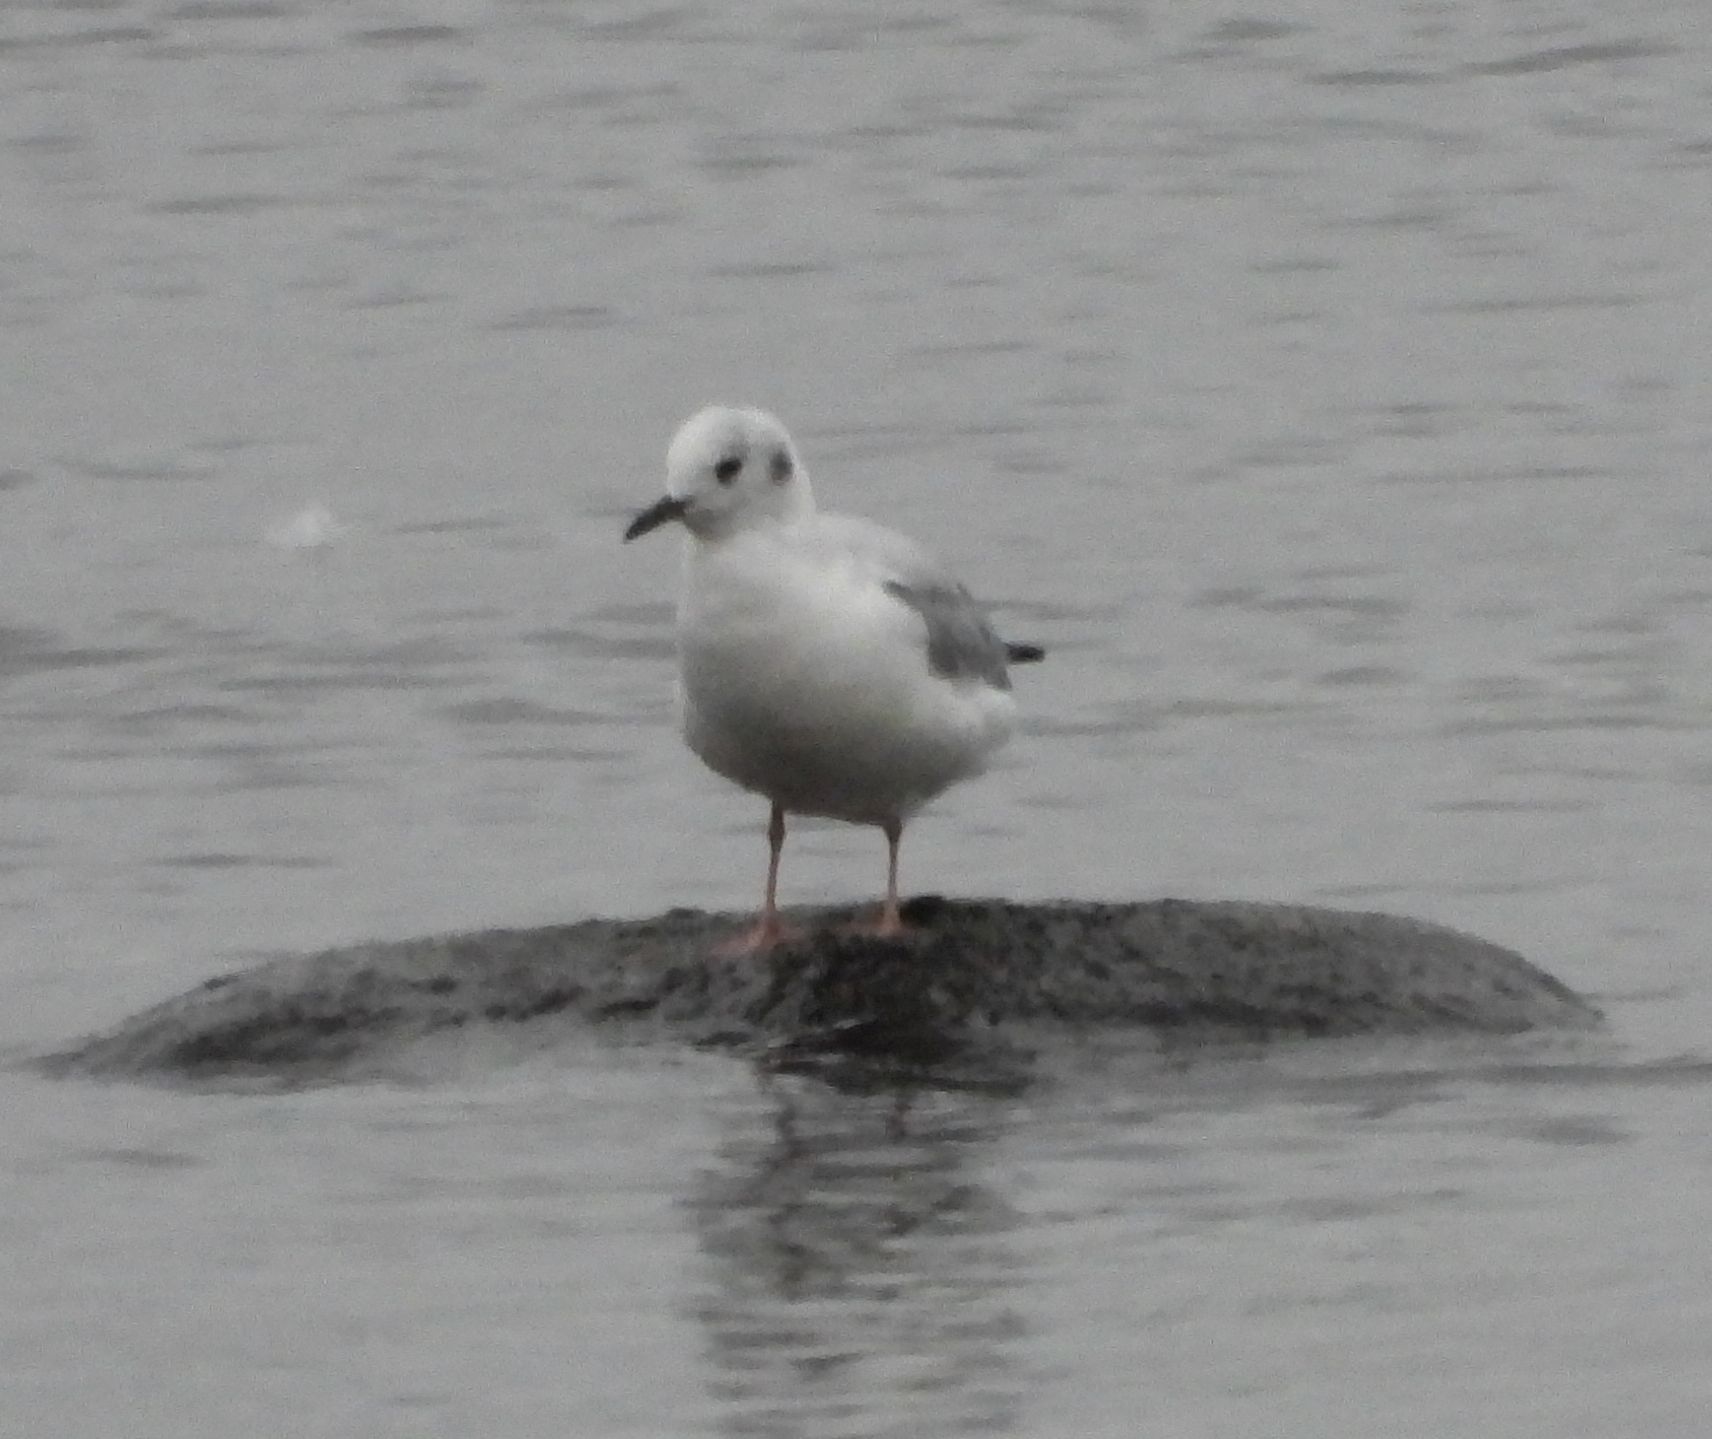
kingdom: Animalia
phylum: Chordata
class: Aves
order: Charadriiformes
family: Laridae
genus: Chroicocephalus
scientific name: Chroicocephalus philadelphia
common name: Bonaparte's gull
